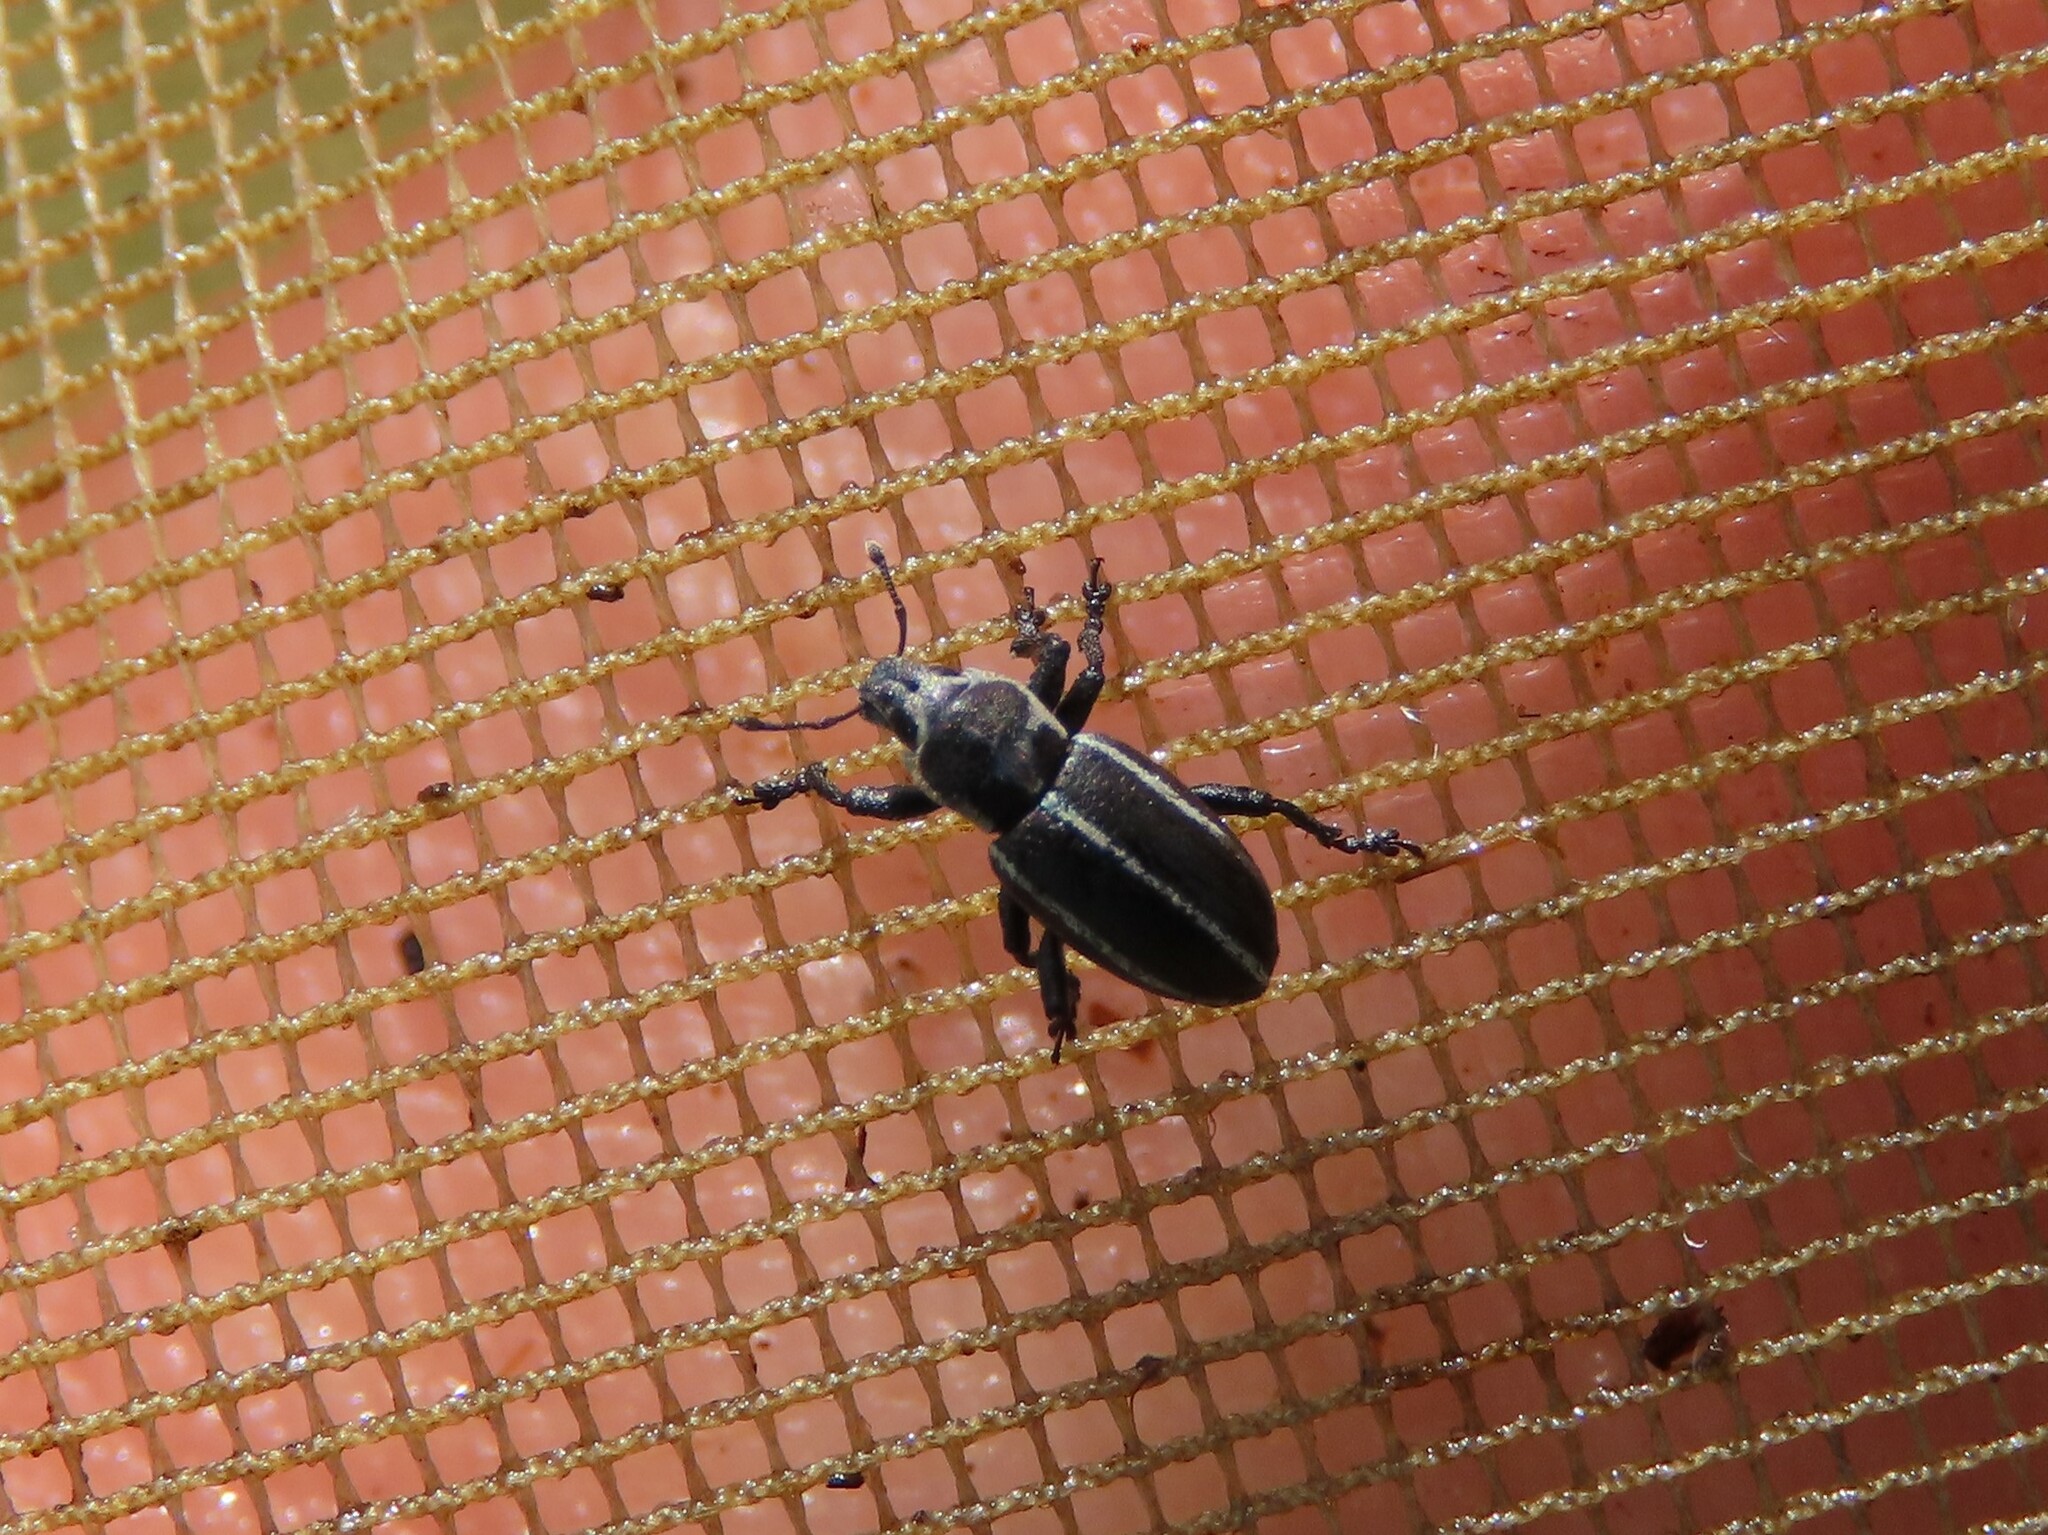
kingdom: Animalia
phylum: Arthropoda
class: Insecta
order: Coleoptera
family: Curculionidae
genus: Eudiagogus
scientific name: Eudiagogus maryae
